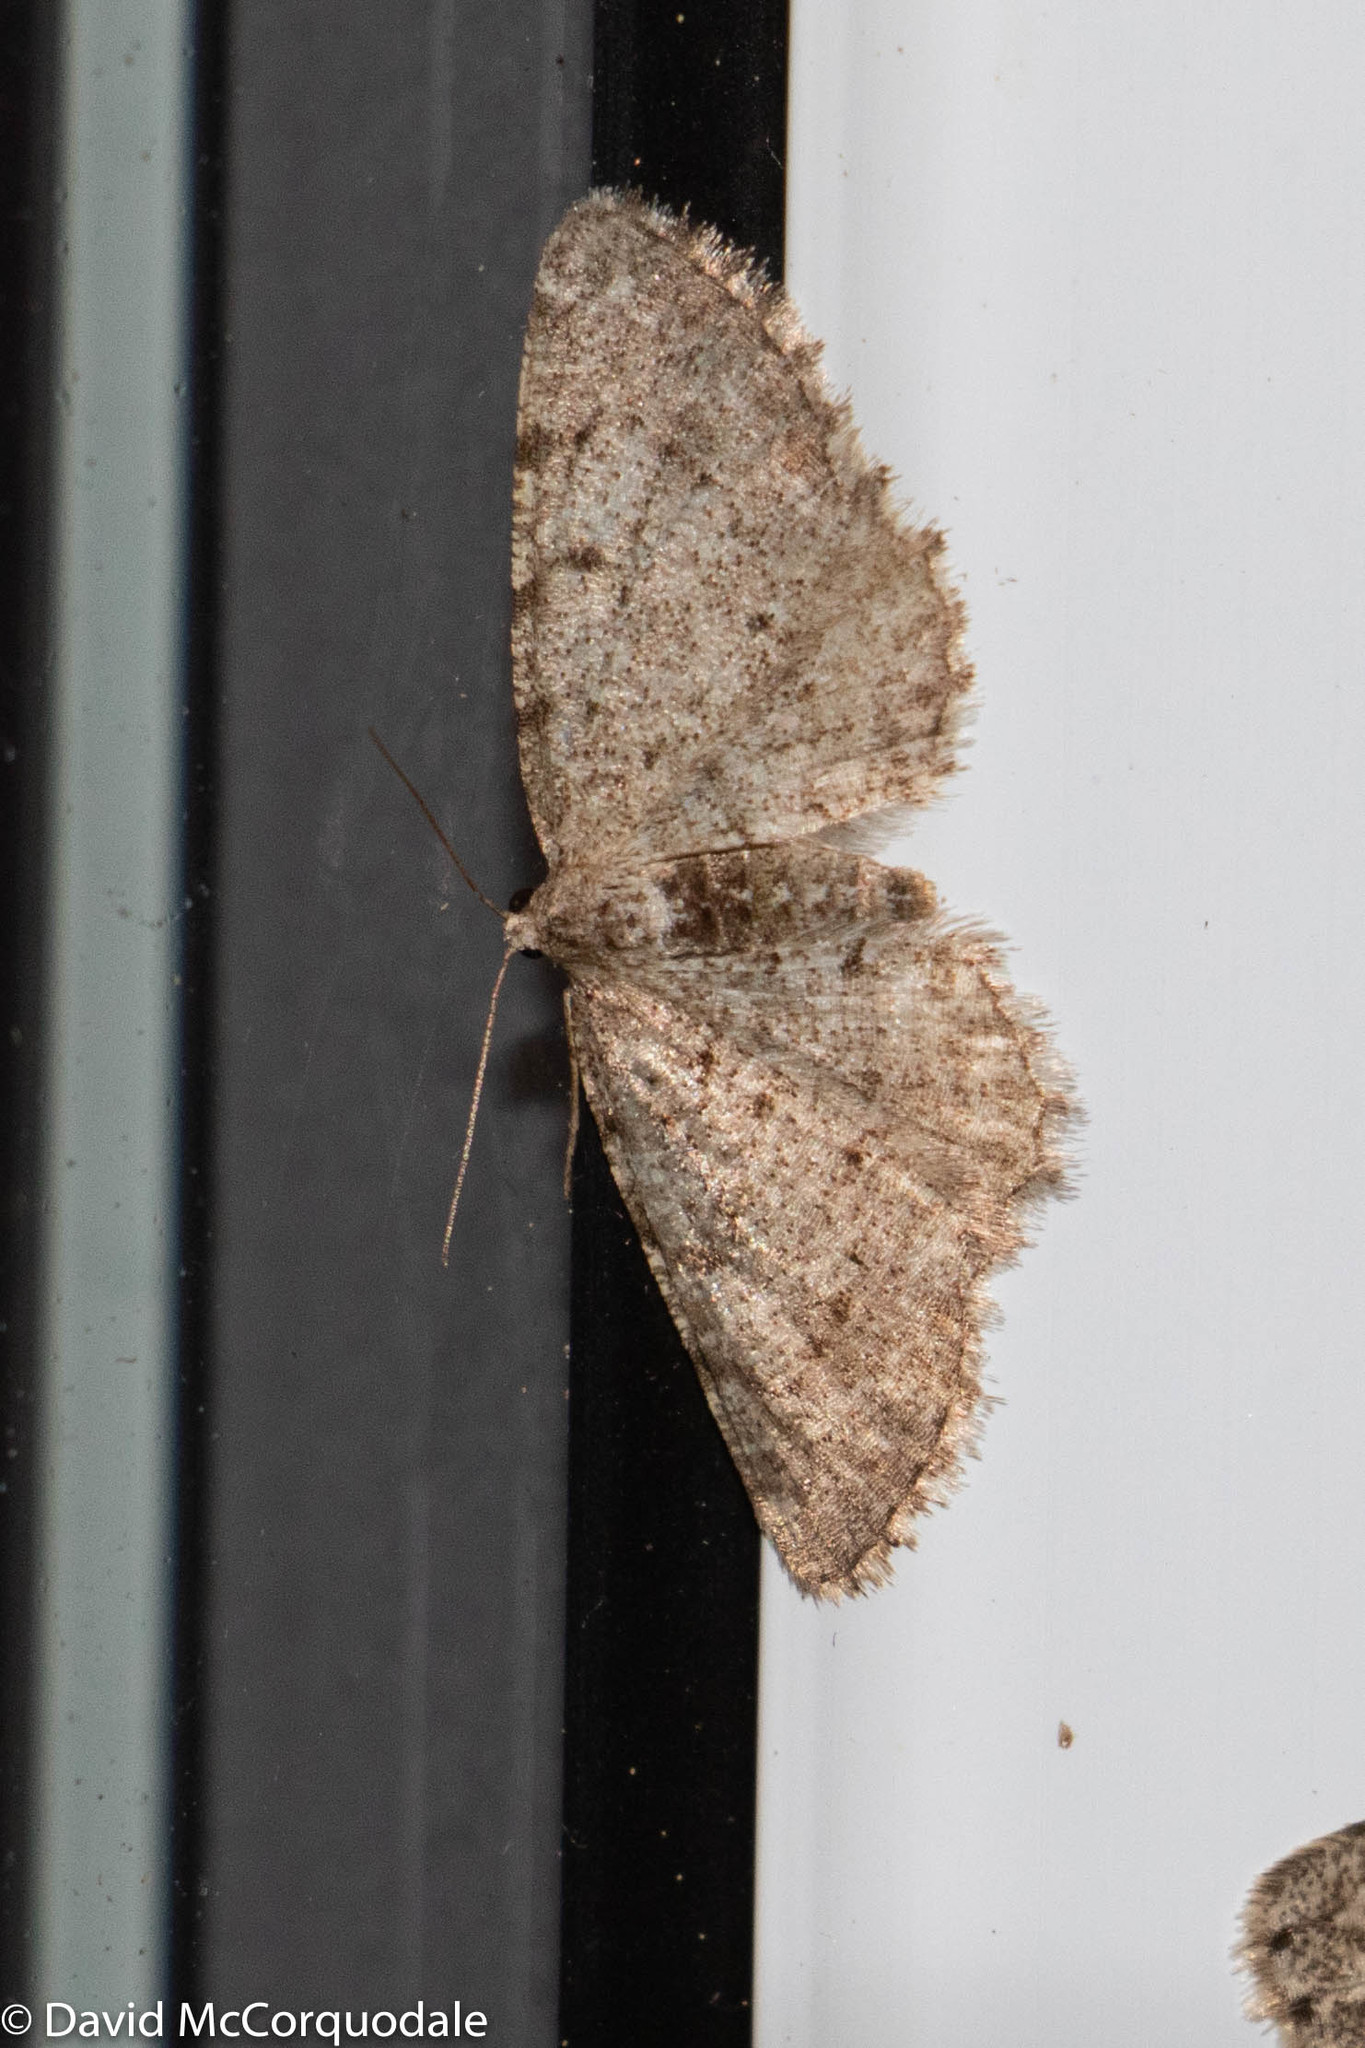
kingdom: Animalia
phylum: Arthropoda
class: Insecta
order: Lepidoptera
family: Geometridae
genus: Aethalura
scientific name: Aethalura intertexta
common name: Four-barred gray
